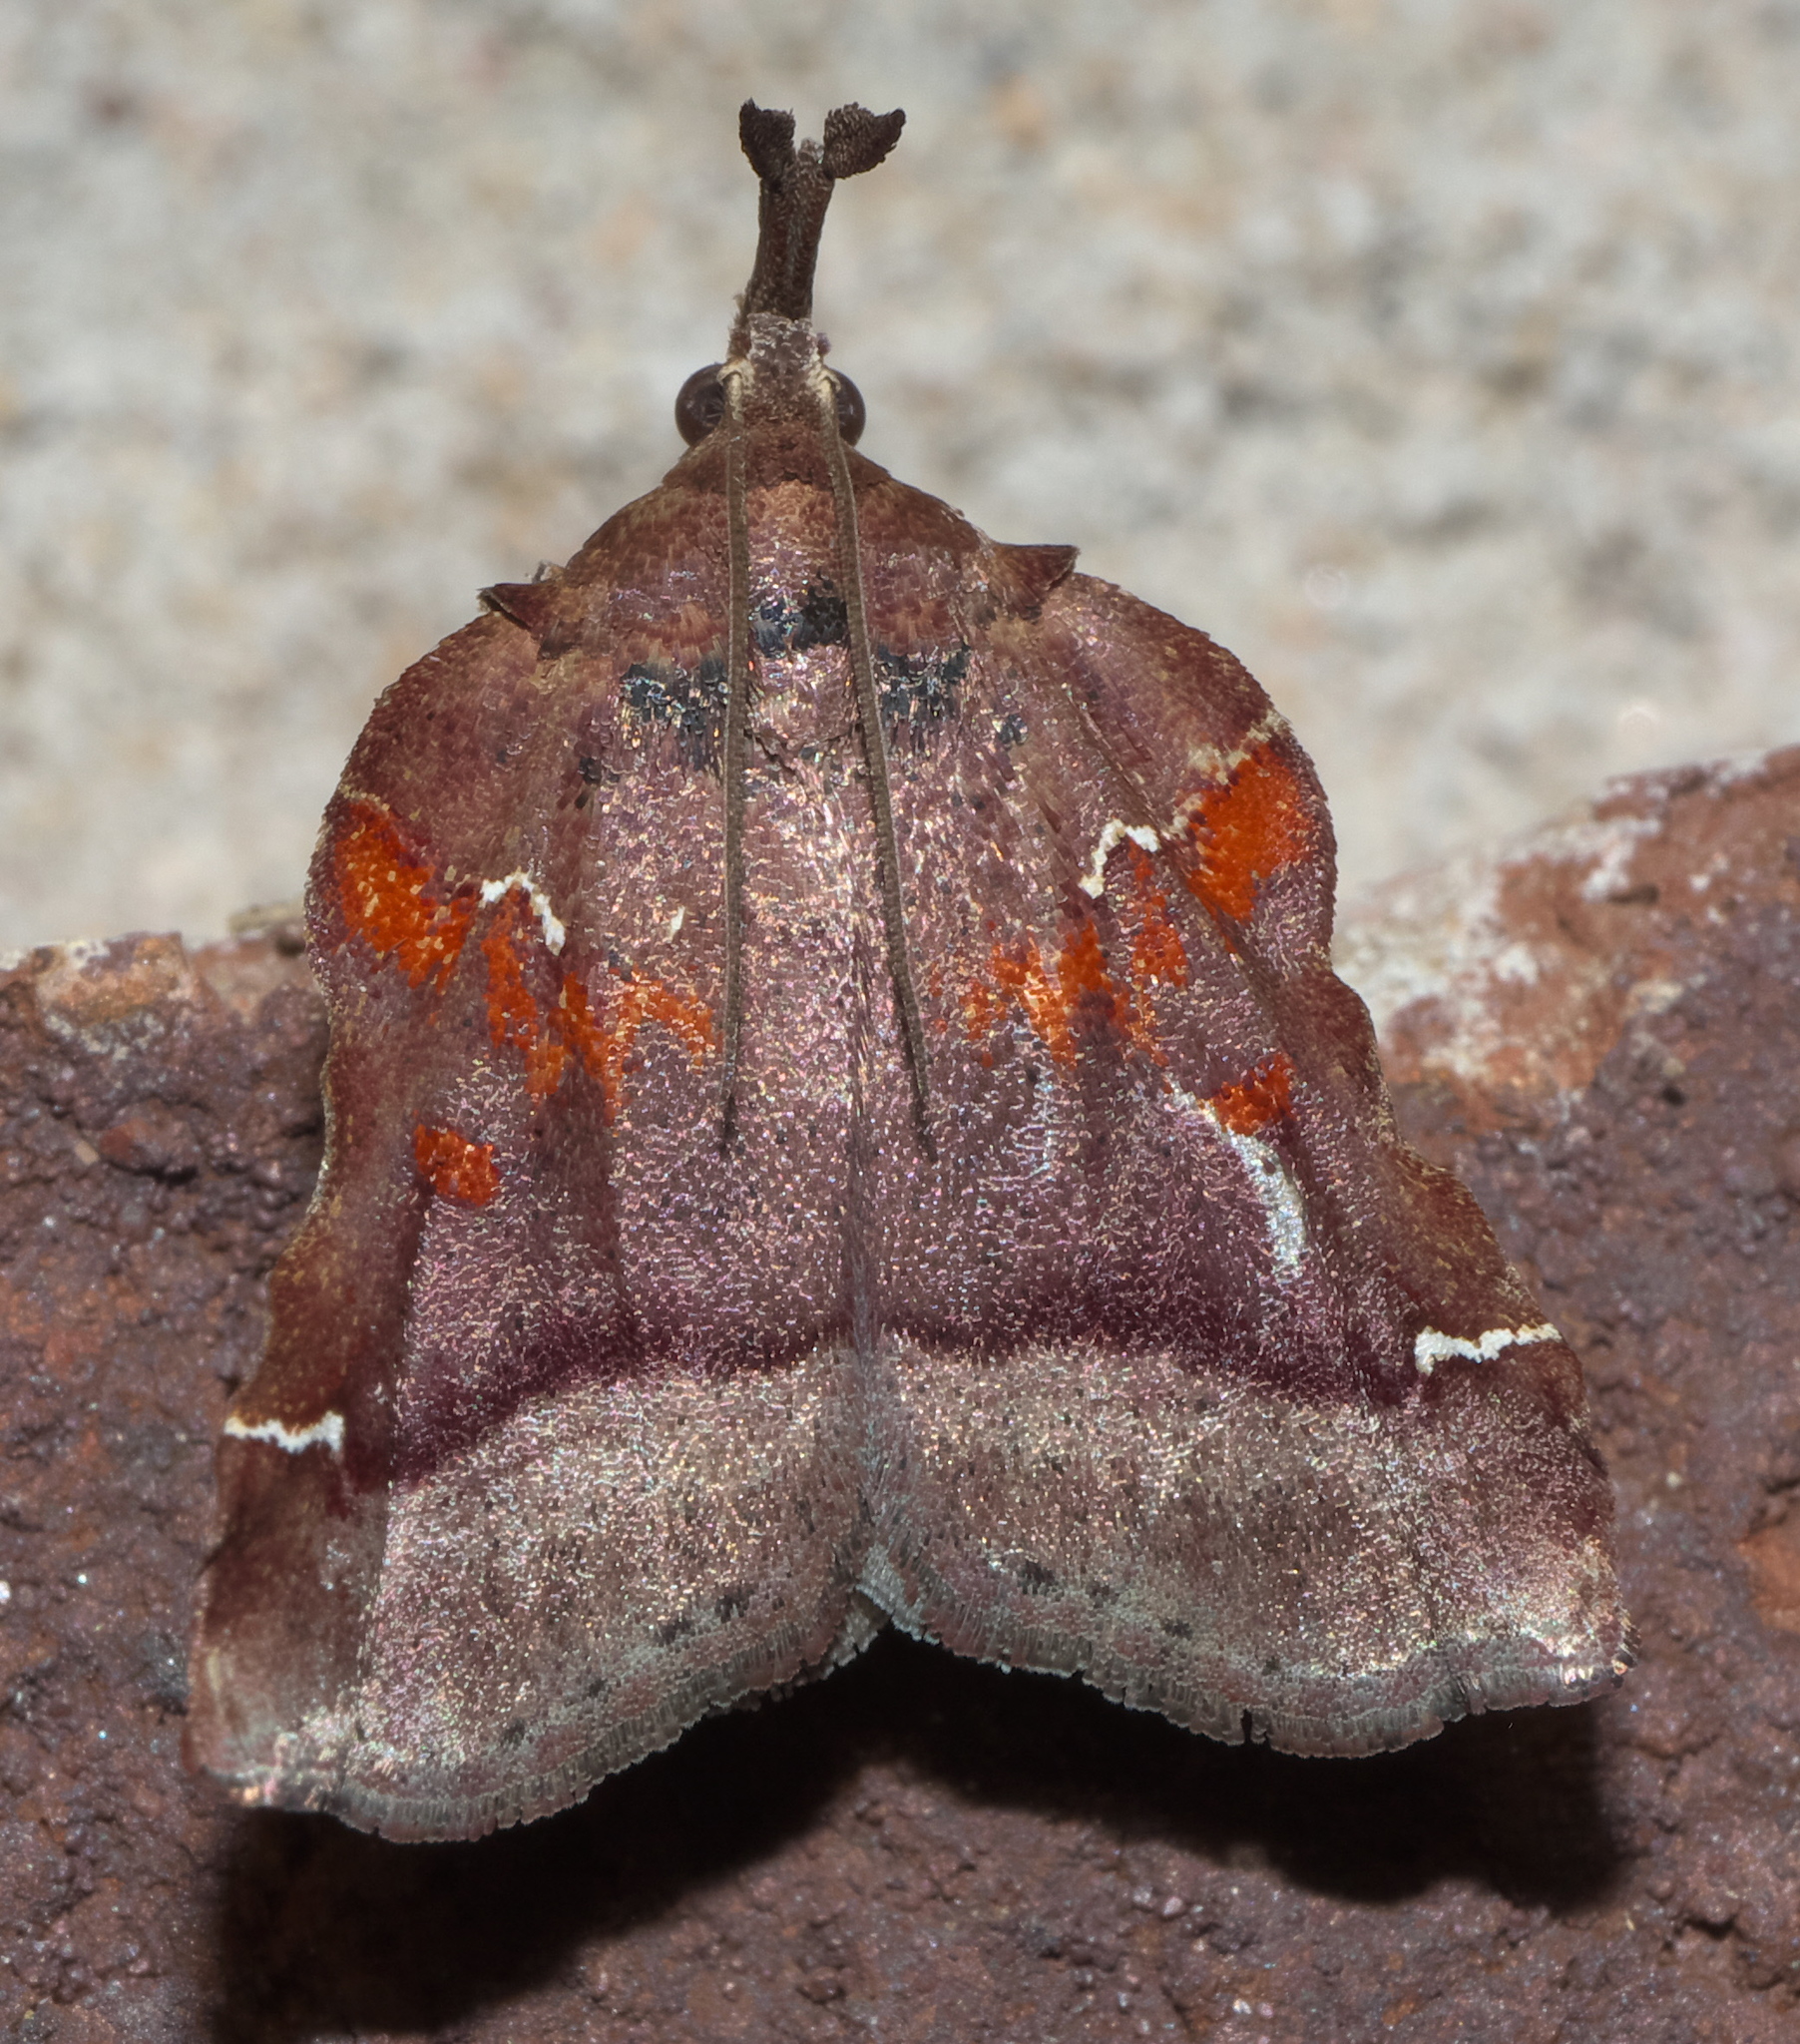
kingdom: Animalia
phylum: Arthropoda
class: Insecta
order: Lepidoptera
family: Pyralidae
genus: Clydonopteron
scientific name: Clydonopteron sacculana
